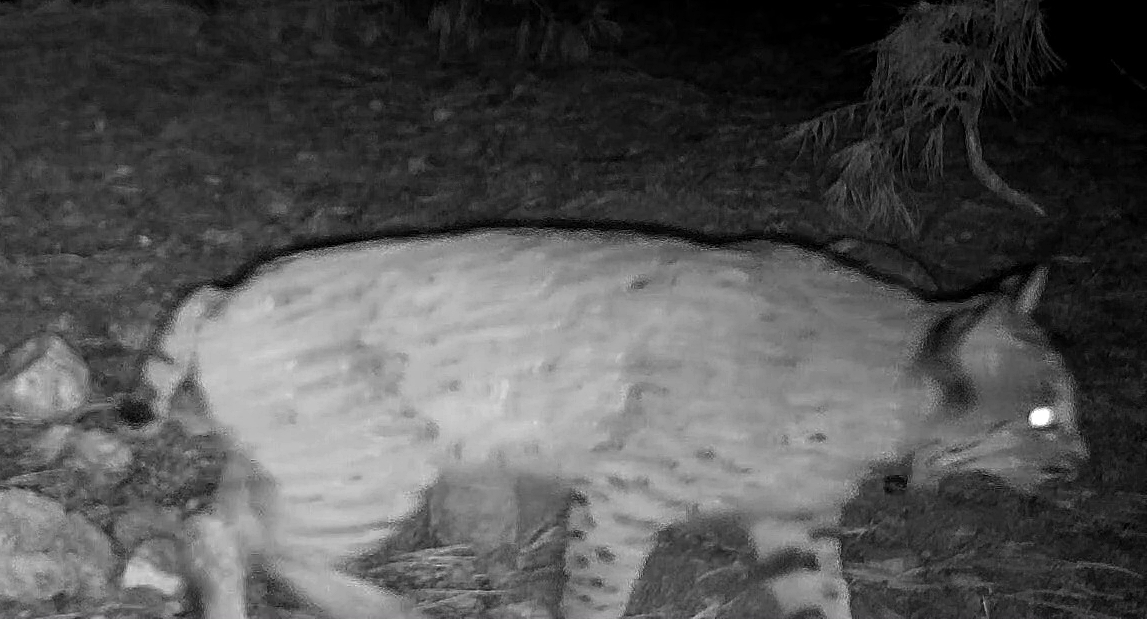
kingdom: Animalia
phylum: Chordata
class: Mammalia
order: Carnivora
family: Felidae
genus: Lynx
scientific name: Lynx rufus
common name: Bobcat
